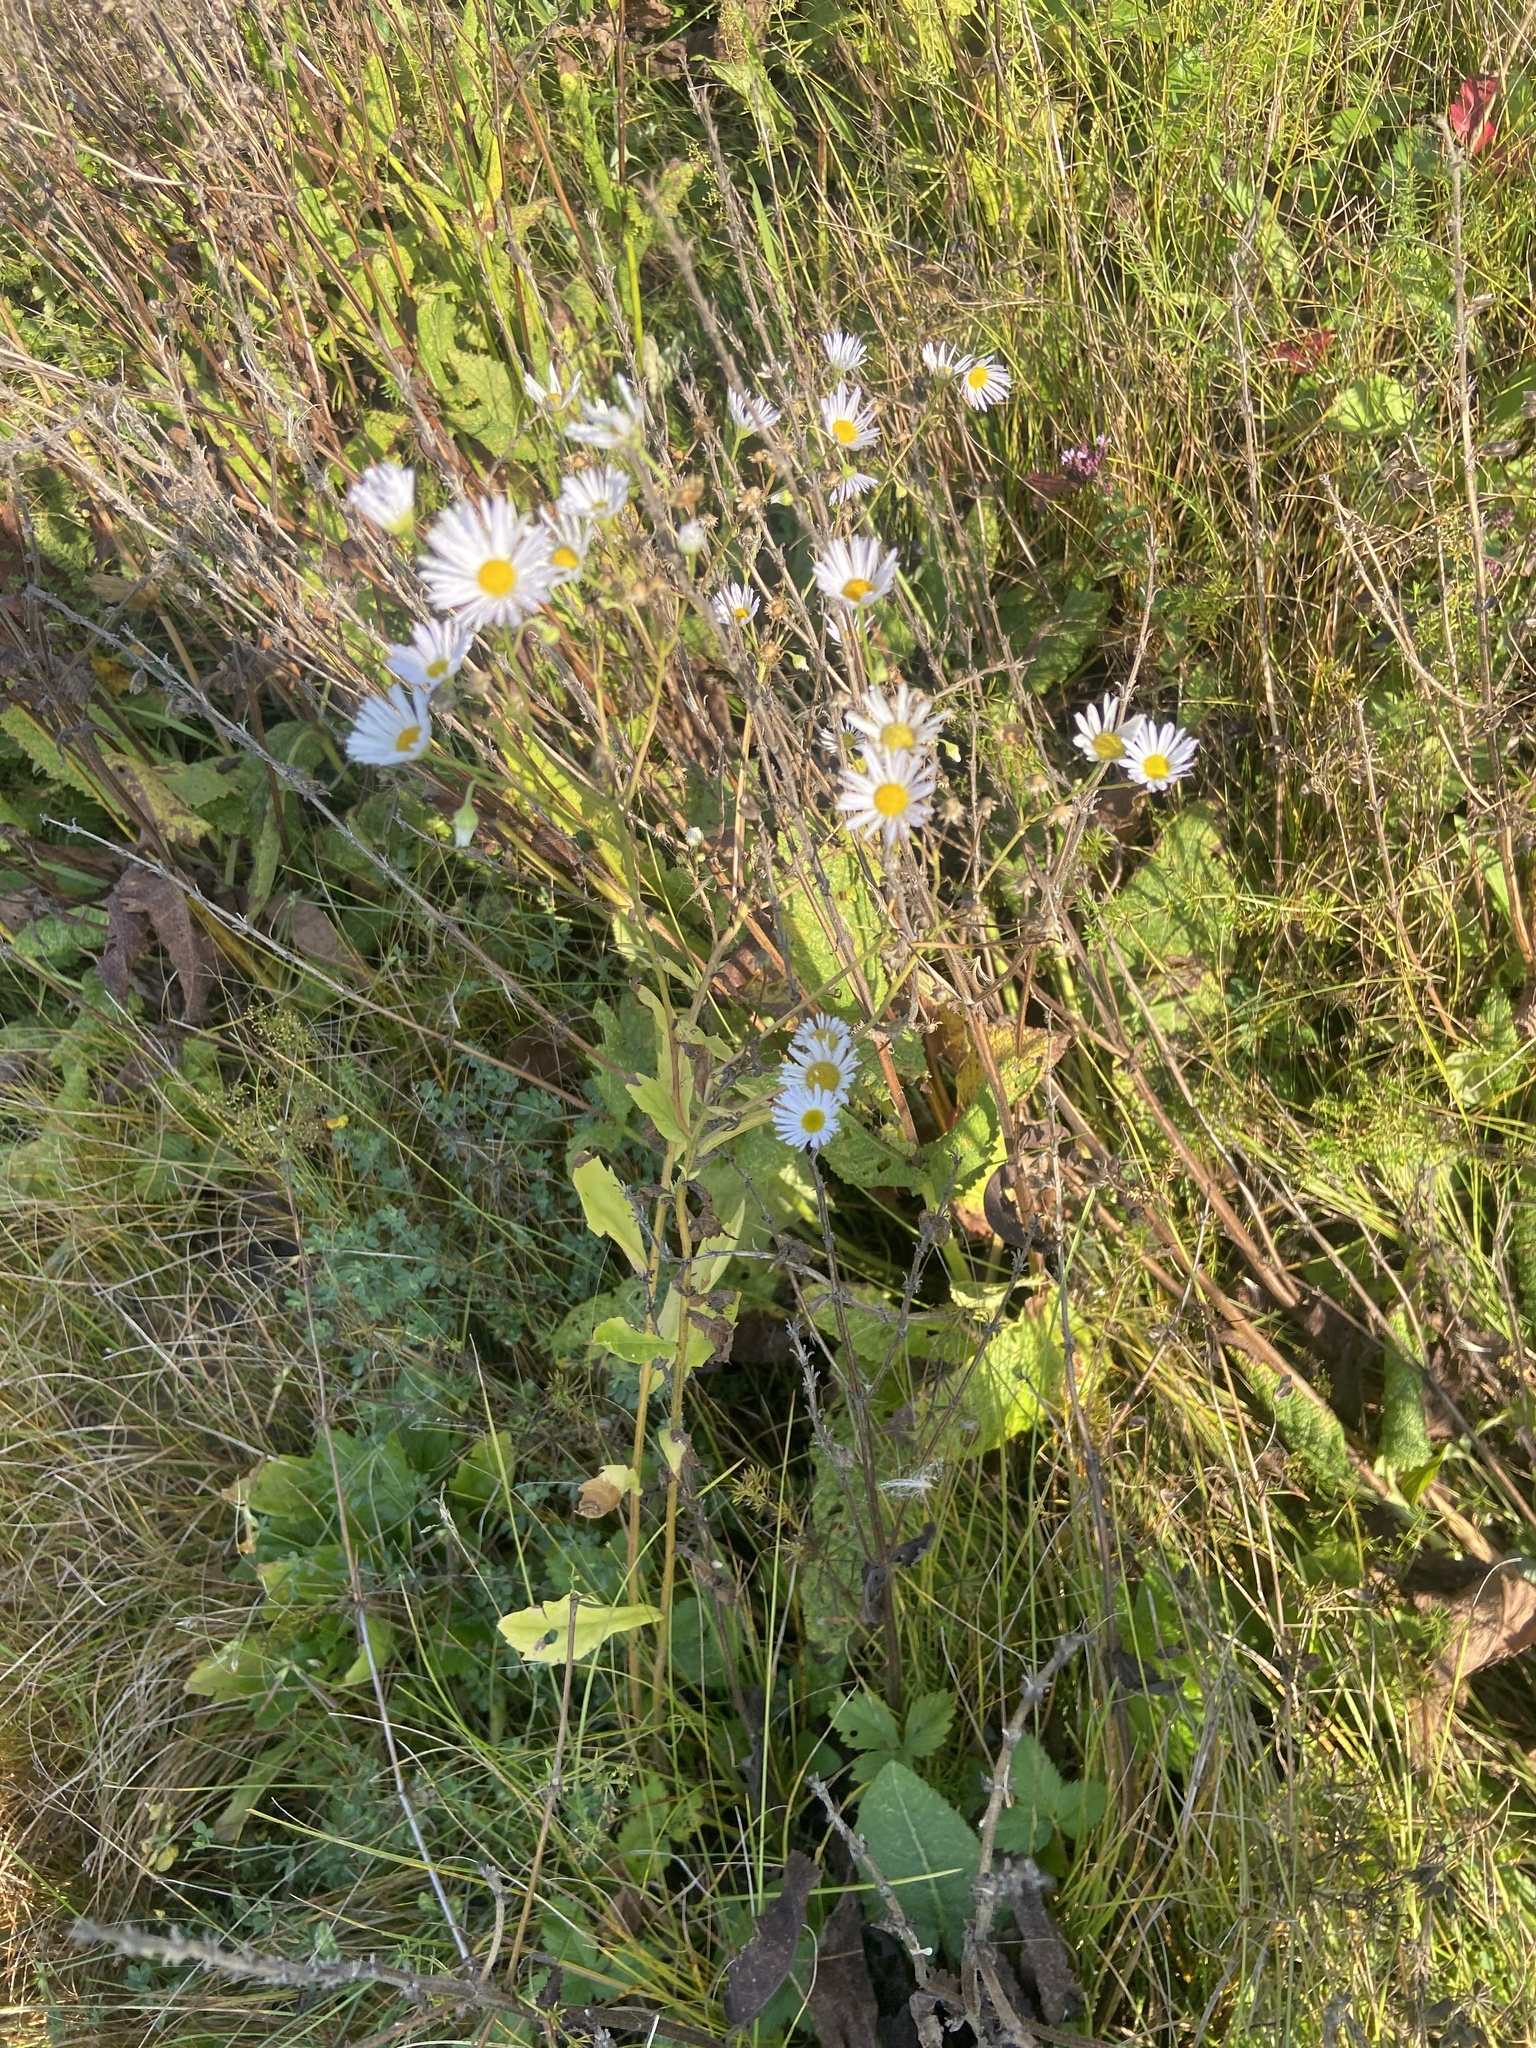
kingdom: Plantae
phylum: Tracheophyta
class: Magnoliopsida
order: Asterales
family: Asteraceae
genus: Erigeron
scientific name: Erigeron annuus
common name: Tall fleabane
